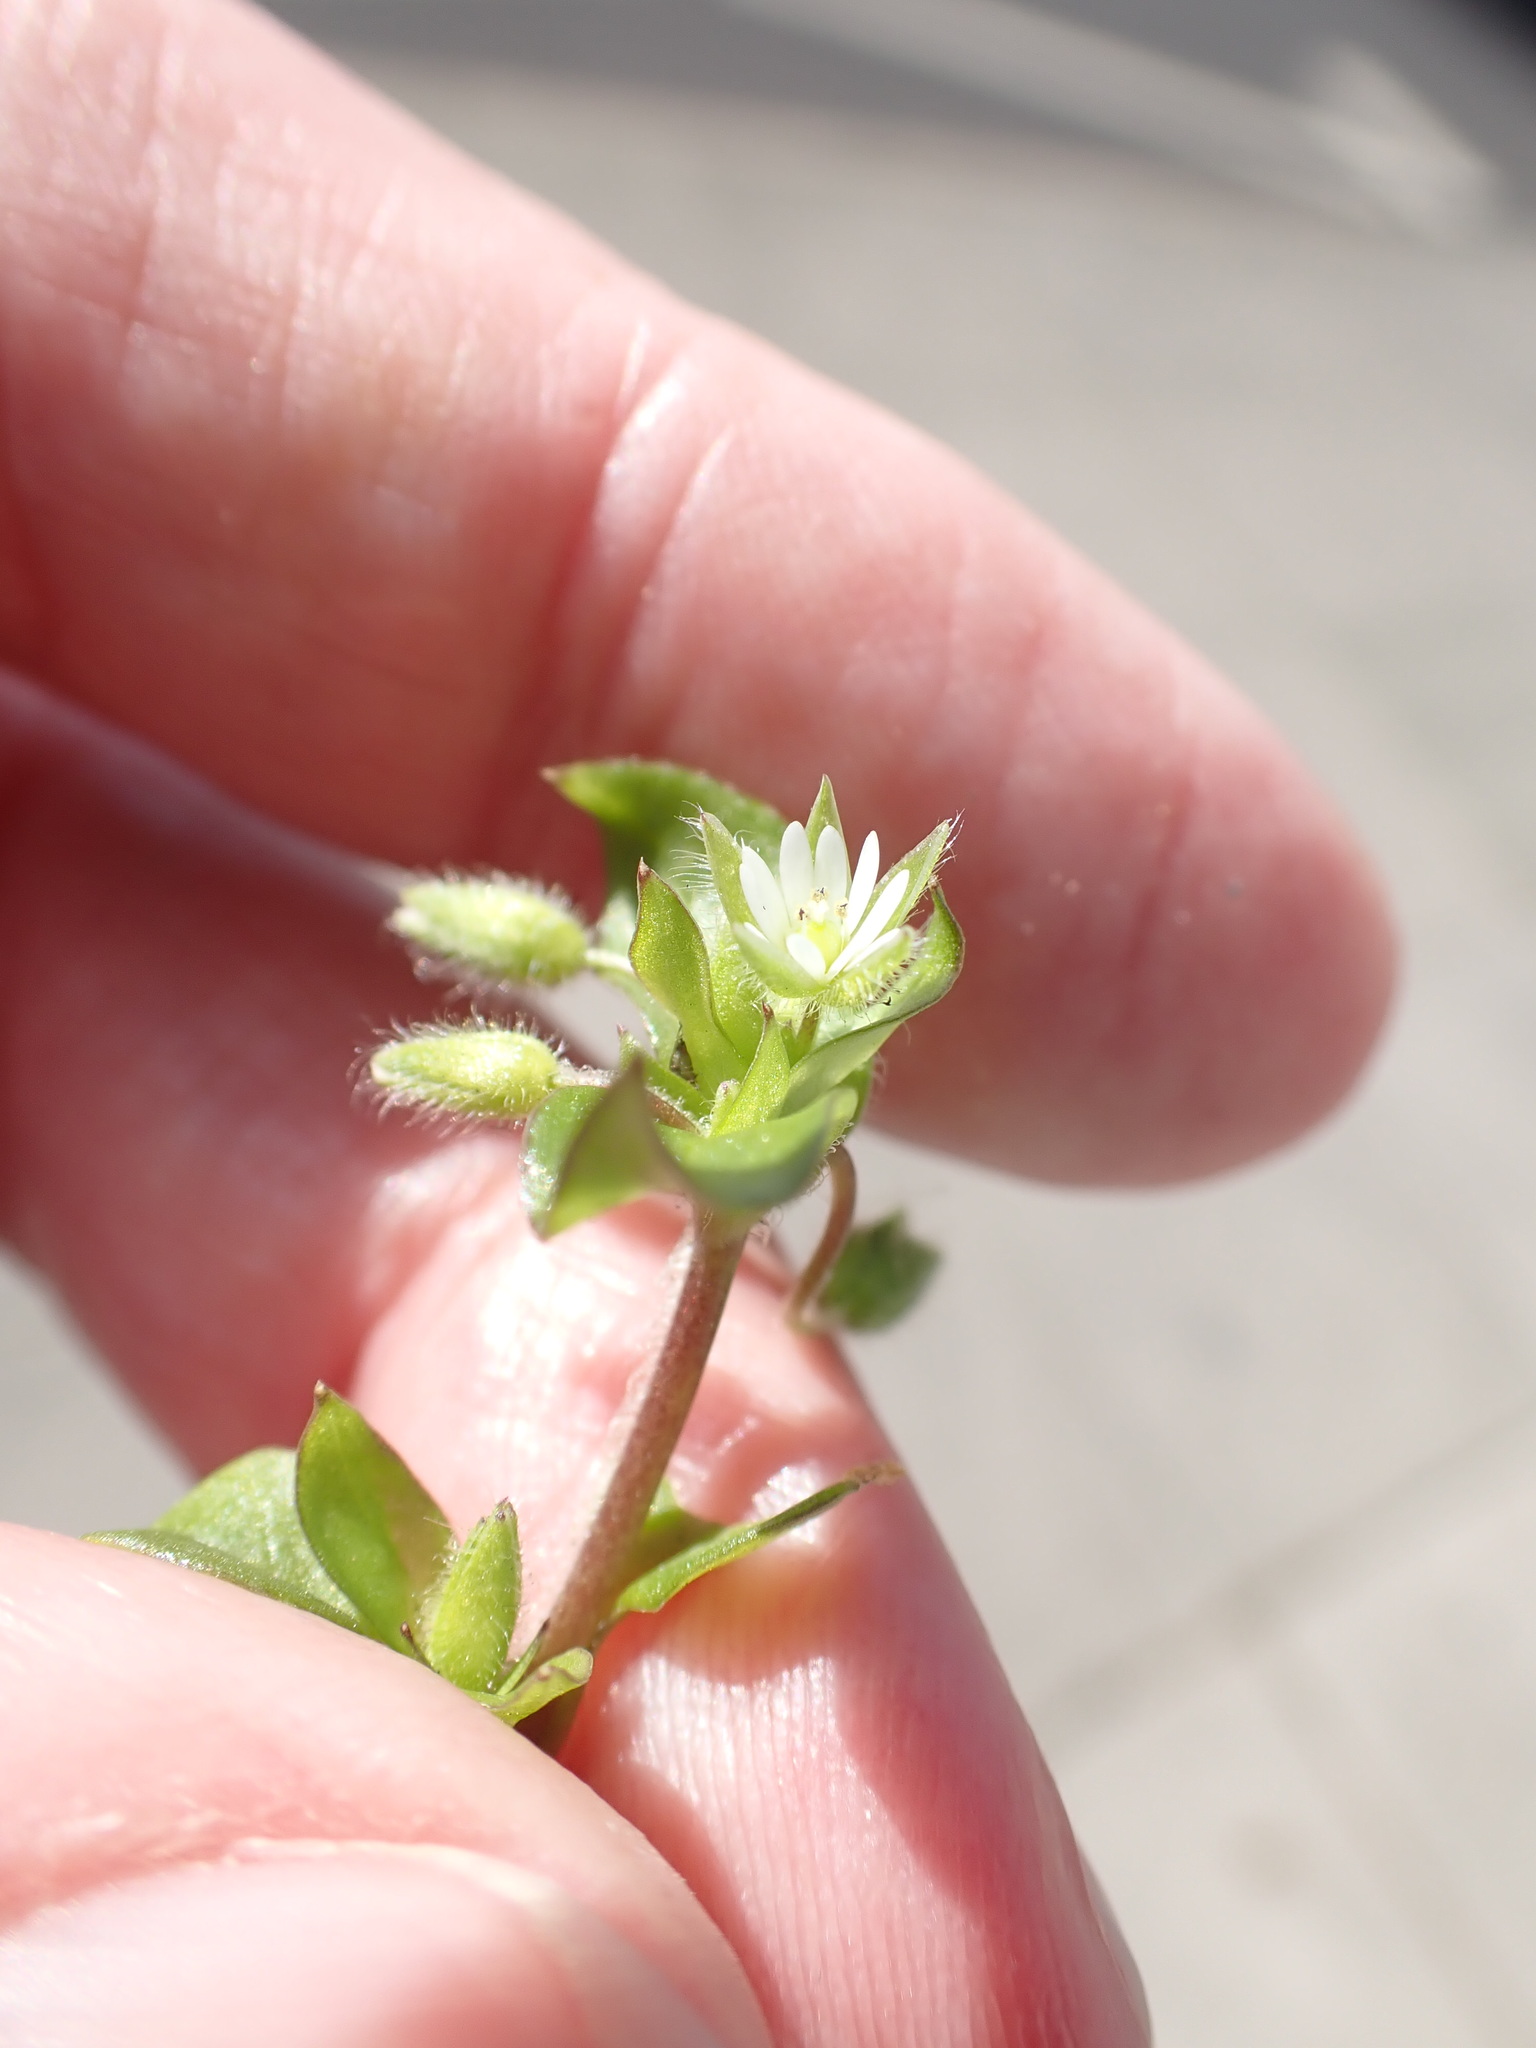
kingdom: Plantae
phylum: Tracheophyta
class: Magnoliopsida
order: Caryophyllales
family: Caryophyllaceae
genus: Stellaria
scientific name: Stellaria media
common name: Common chickweed
